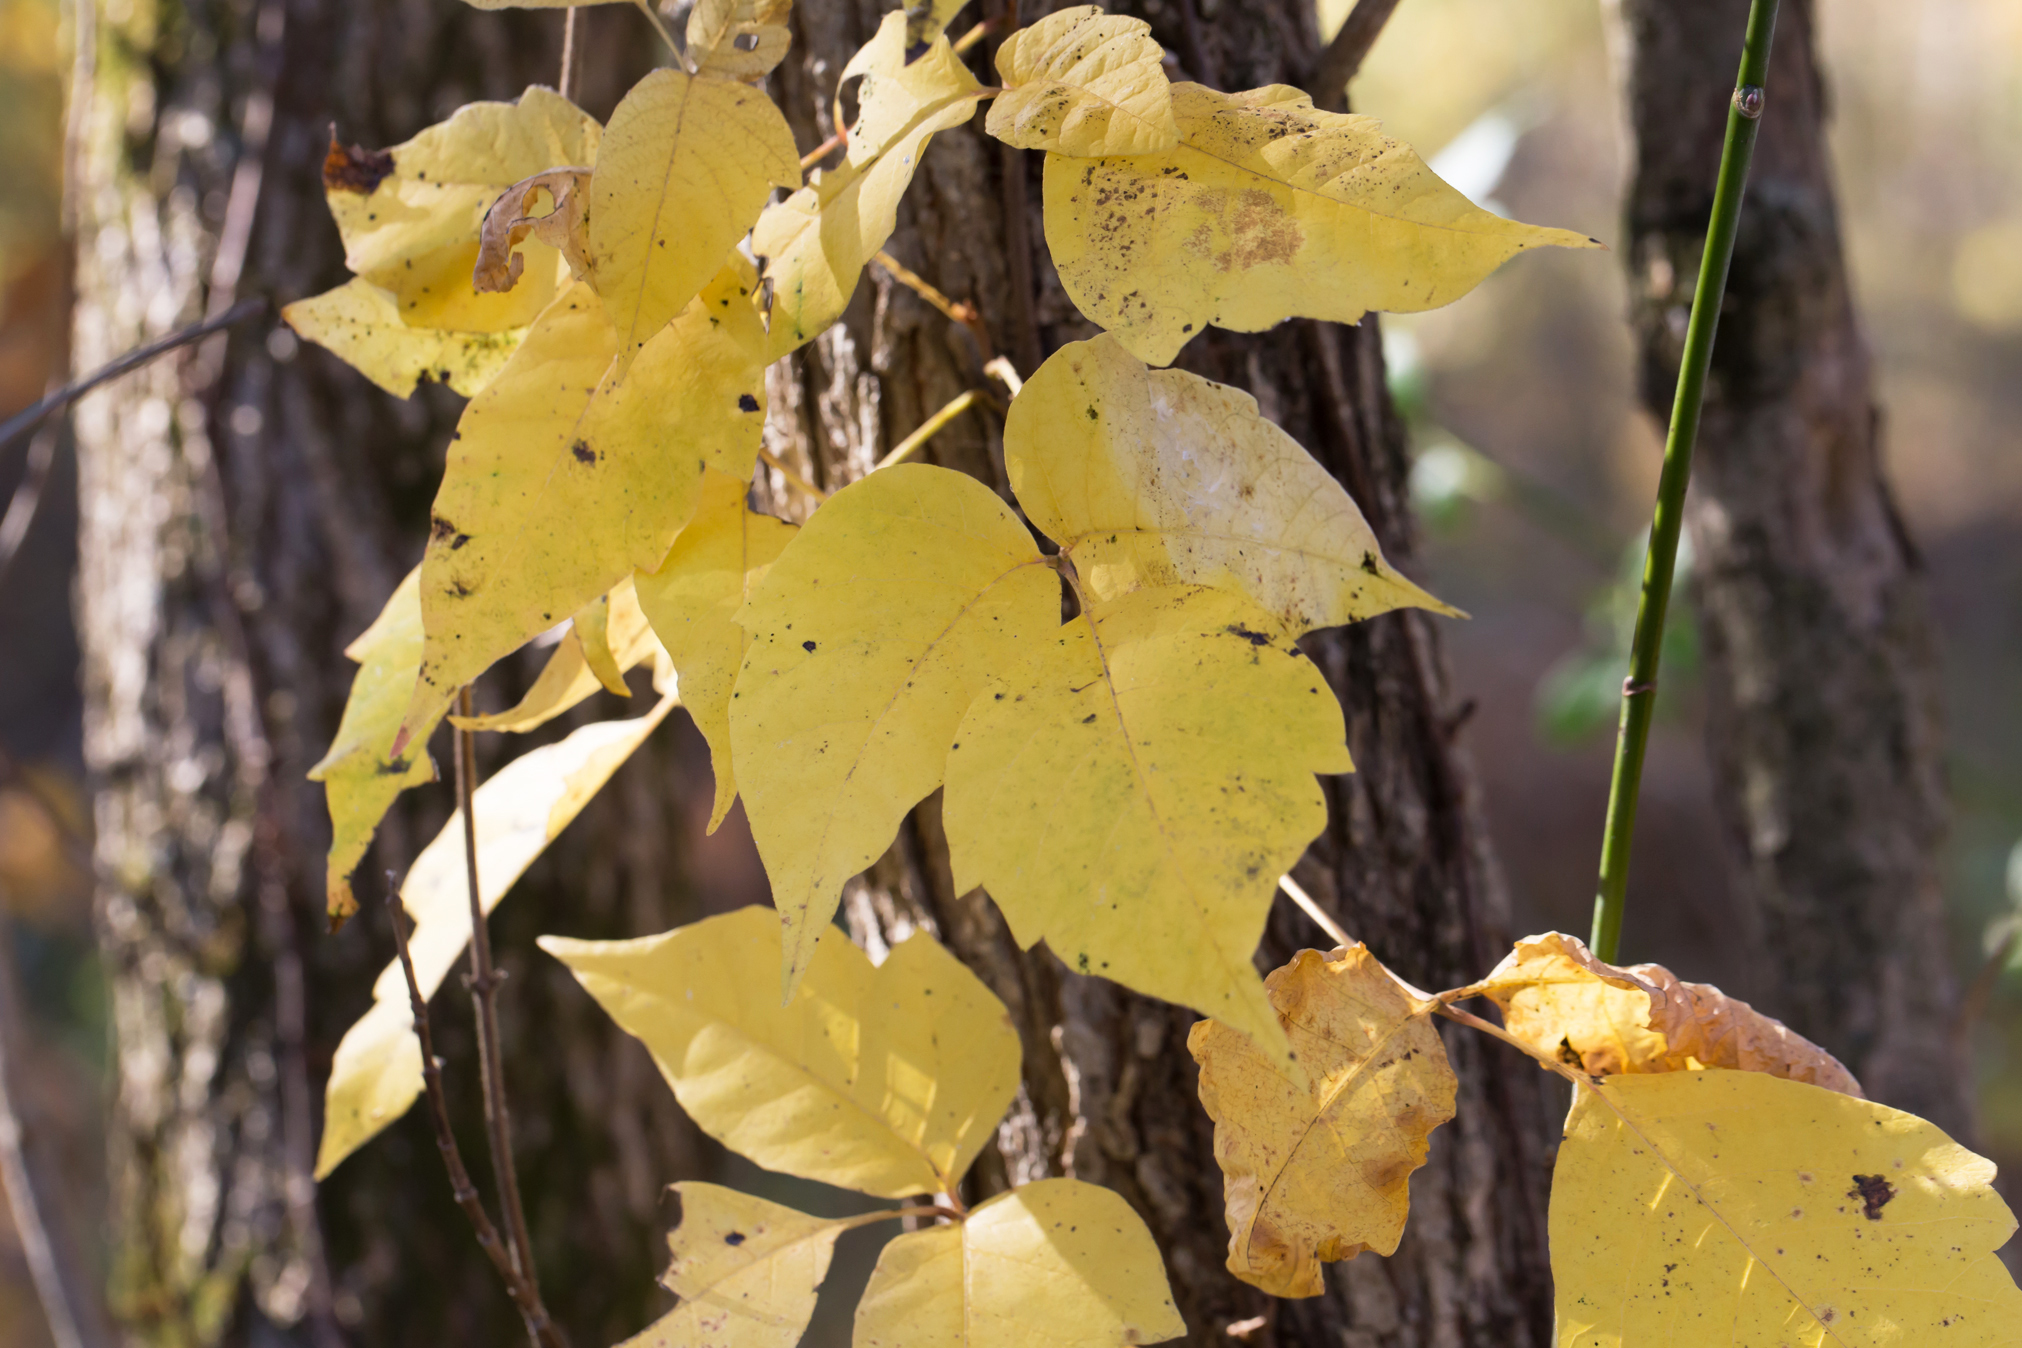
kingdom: Plantae
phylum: Tracheophyta
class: Magnoliopsida
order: Sapindales
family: Anacardiaceae
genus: Toxicodendron
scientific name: Toxicodendron radicans
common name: Poison ivy
